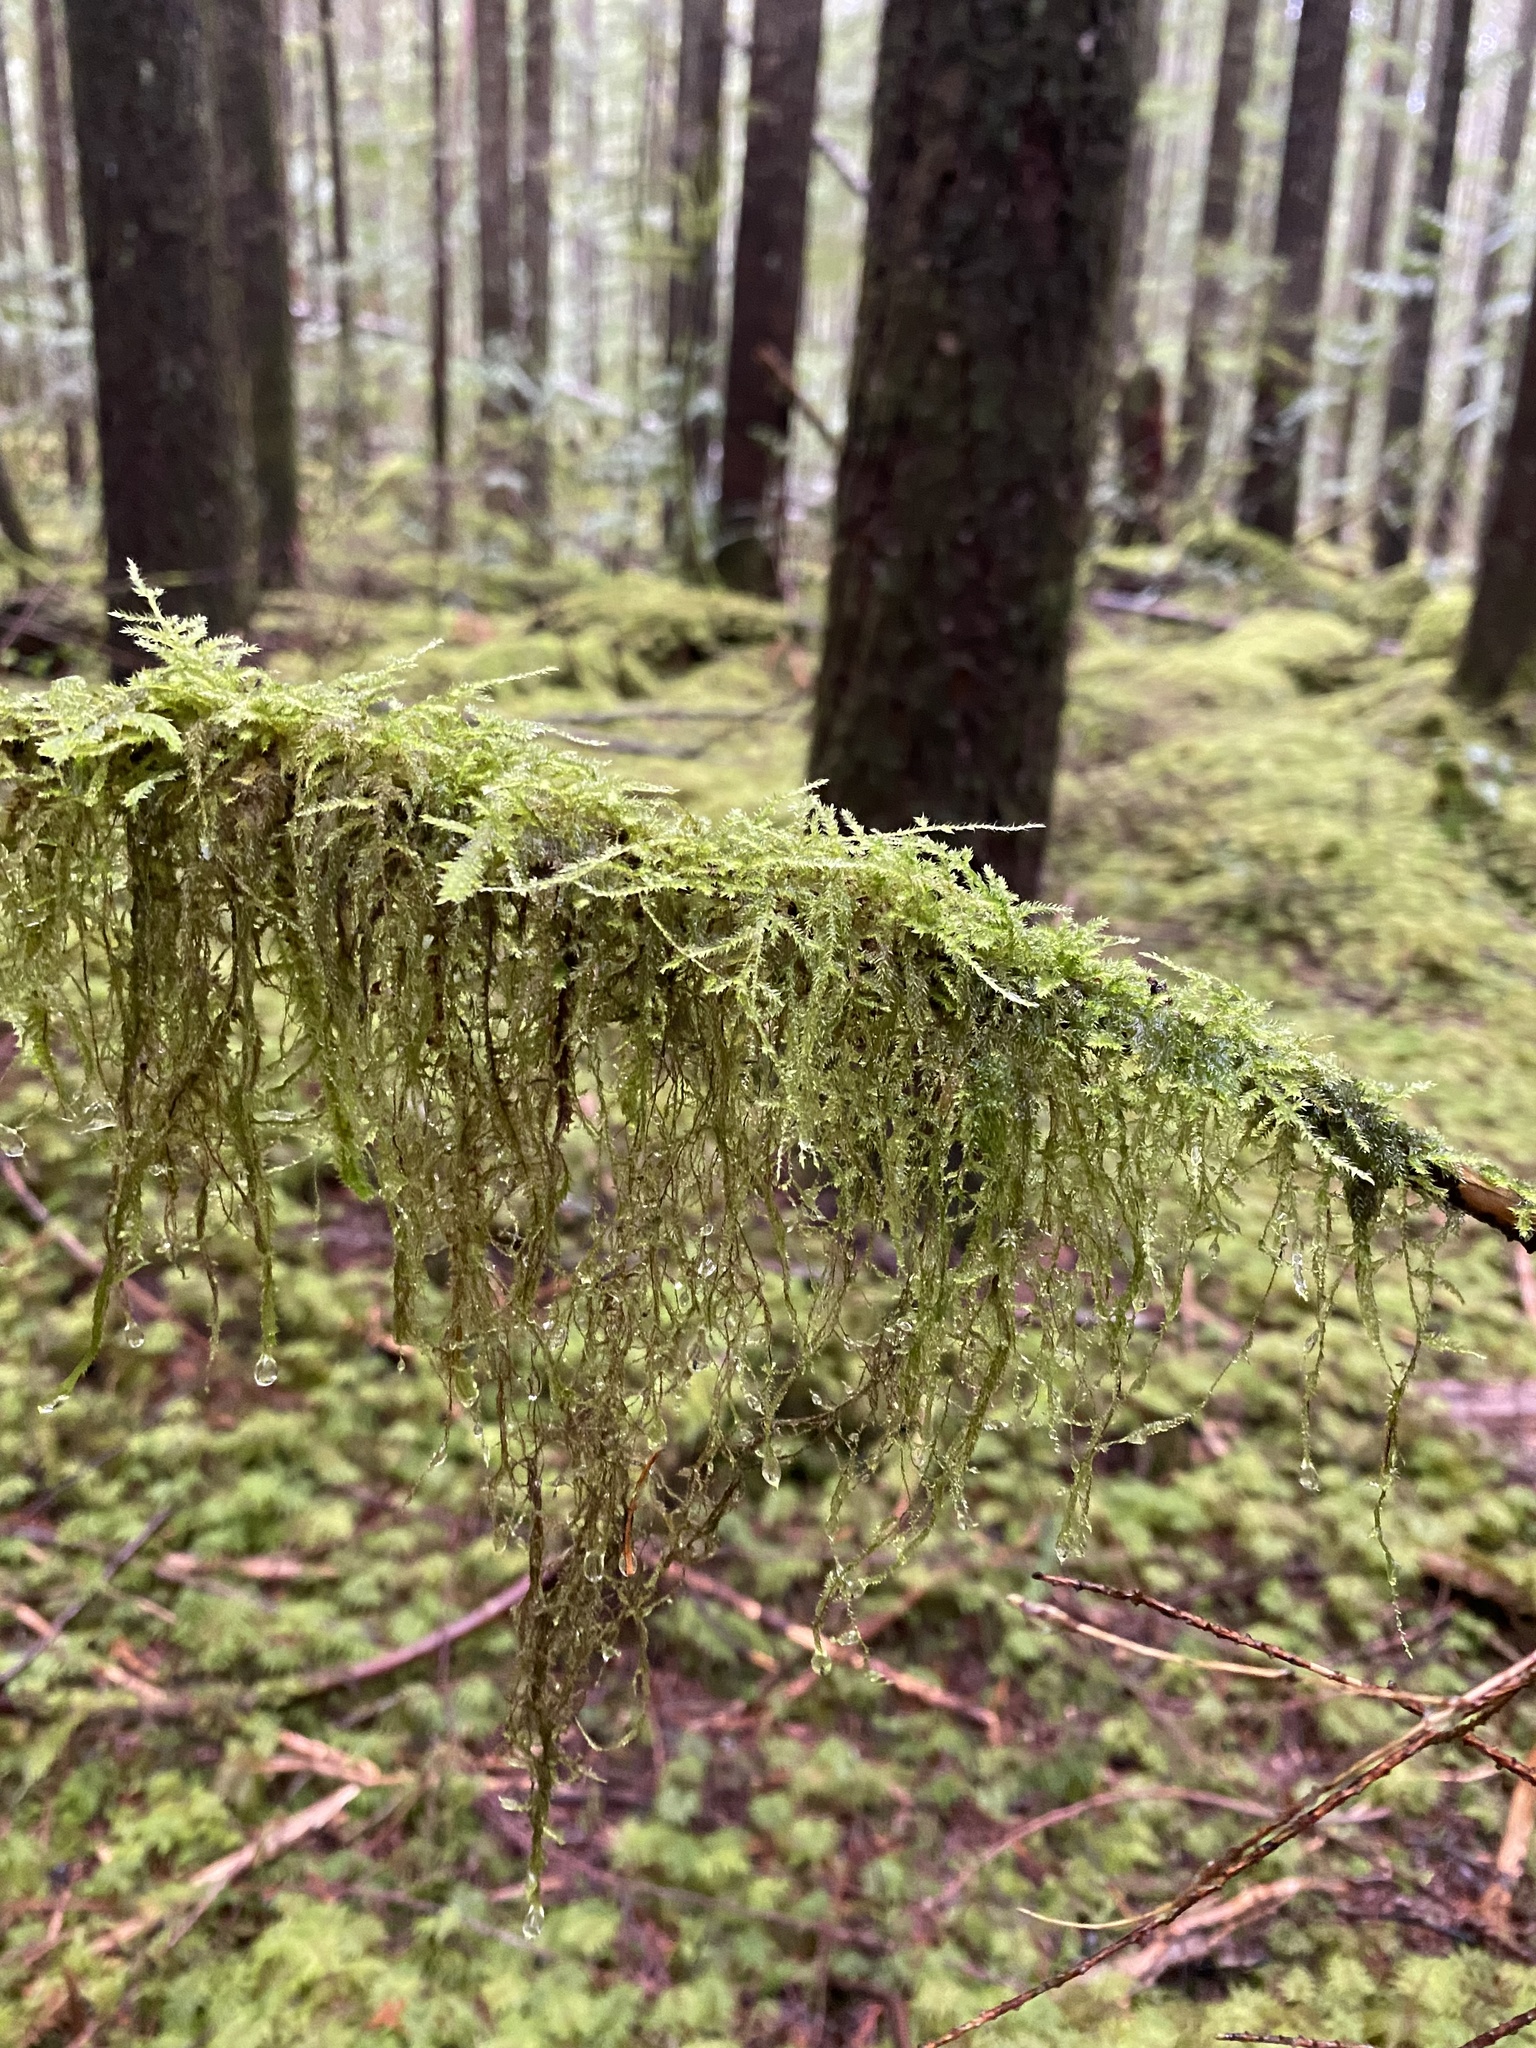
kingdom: Plantae
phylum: Bryophyta
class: Bryopsida
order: Hypnales
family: Lembophyllaceae
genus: Pseudisothecium
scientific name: Pseudisothecium stoloniferum
